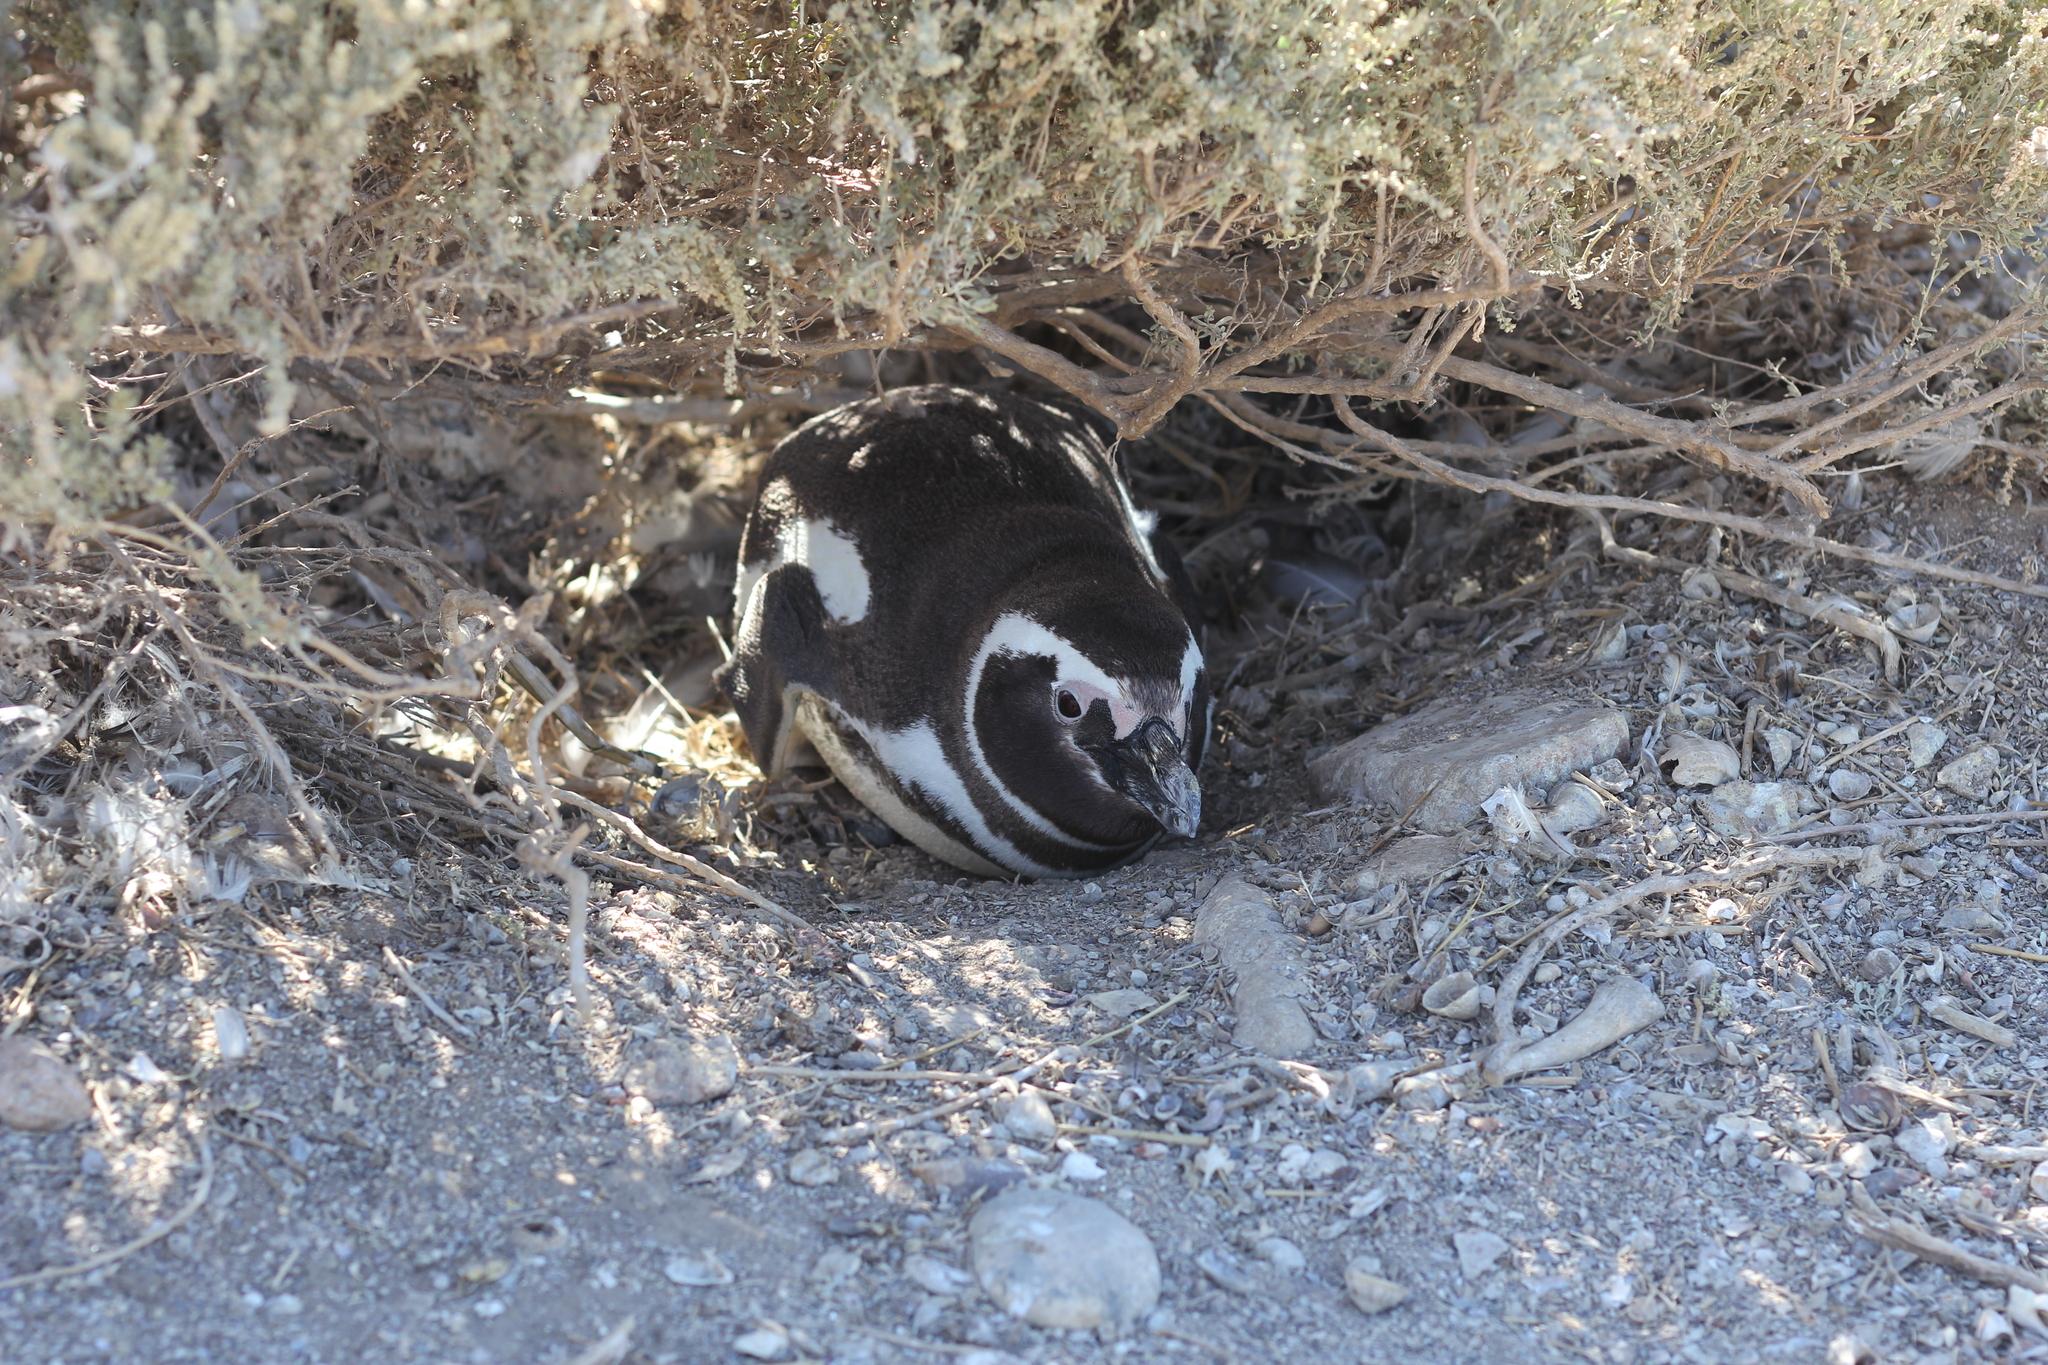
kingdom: Animalia
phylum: Chordata
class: Aves
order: Sphenisciformes
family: Spheniscidae
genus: Spheniscus
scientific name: Spheniscus magellanicus
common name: Magellanic penguin
